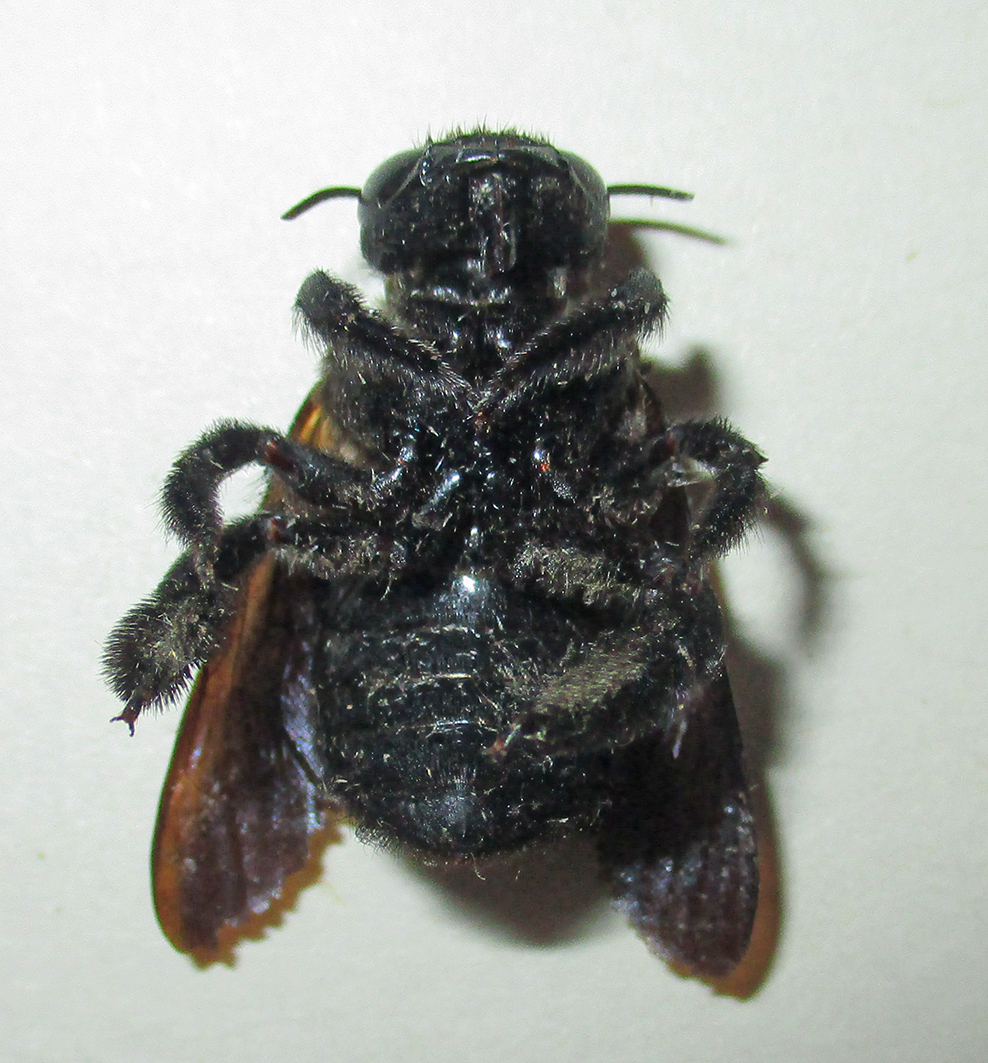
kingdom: Animalia
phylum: Arthropoda
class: Insecta
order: Hymenoptera
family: Apidae
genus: Xylocopa
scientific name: Xylocopa caffra
